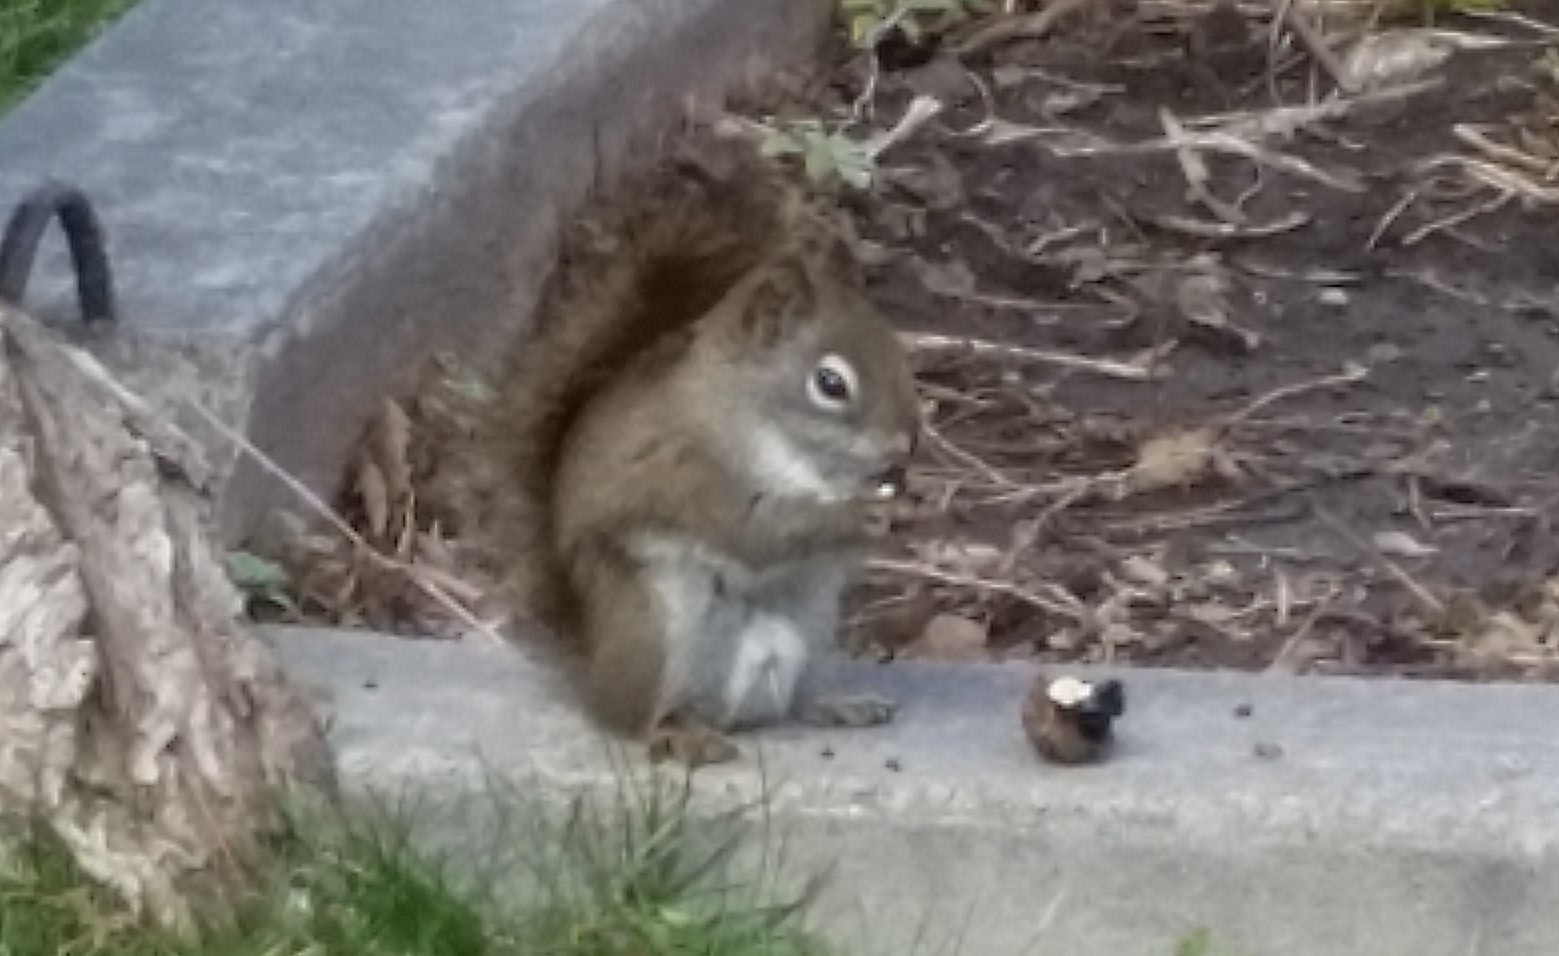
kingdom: Animalia
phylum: Chordata
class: Mammalia
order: Rodentia
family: Sciuridae
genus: Tamiasciurus
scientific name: Tamiasciurus hudsonicus
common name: Red squirrel
